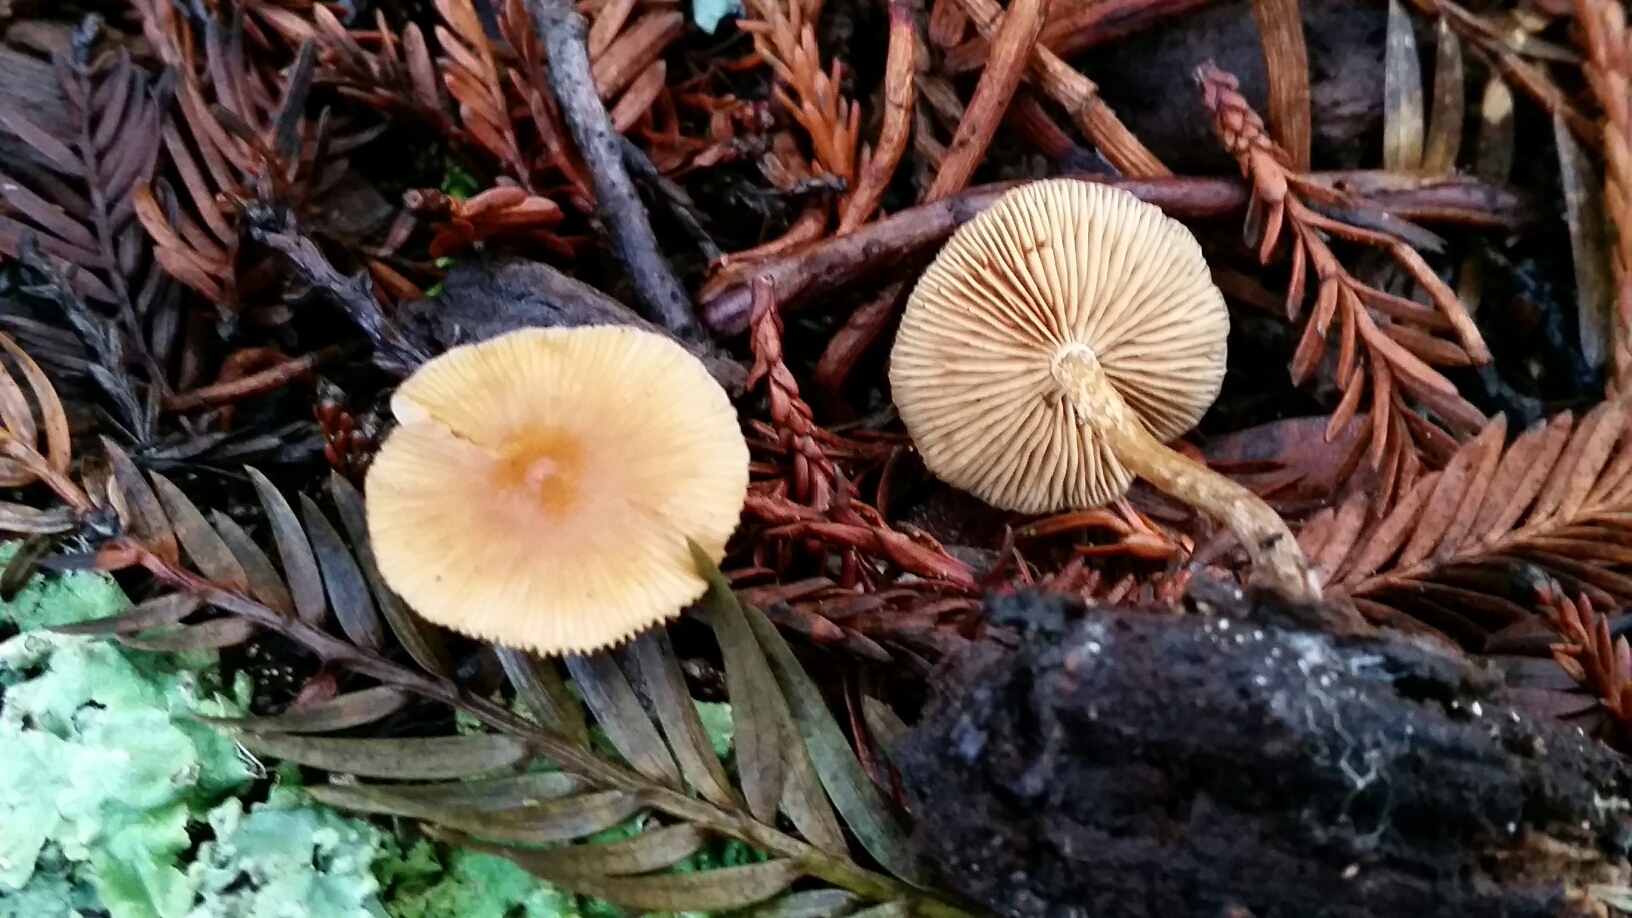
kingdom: Fungi
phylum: Basidiomycota
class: Agaricomycetes
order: Agaricales
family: Tricholomataceae
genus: Caulorhiza
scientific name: Caulorhiza umbonata
